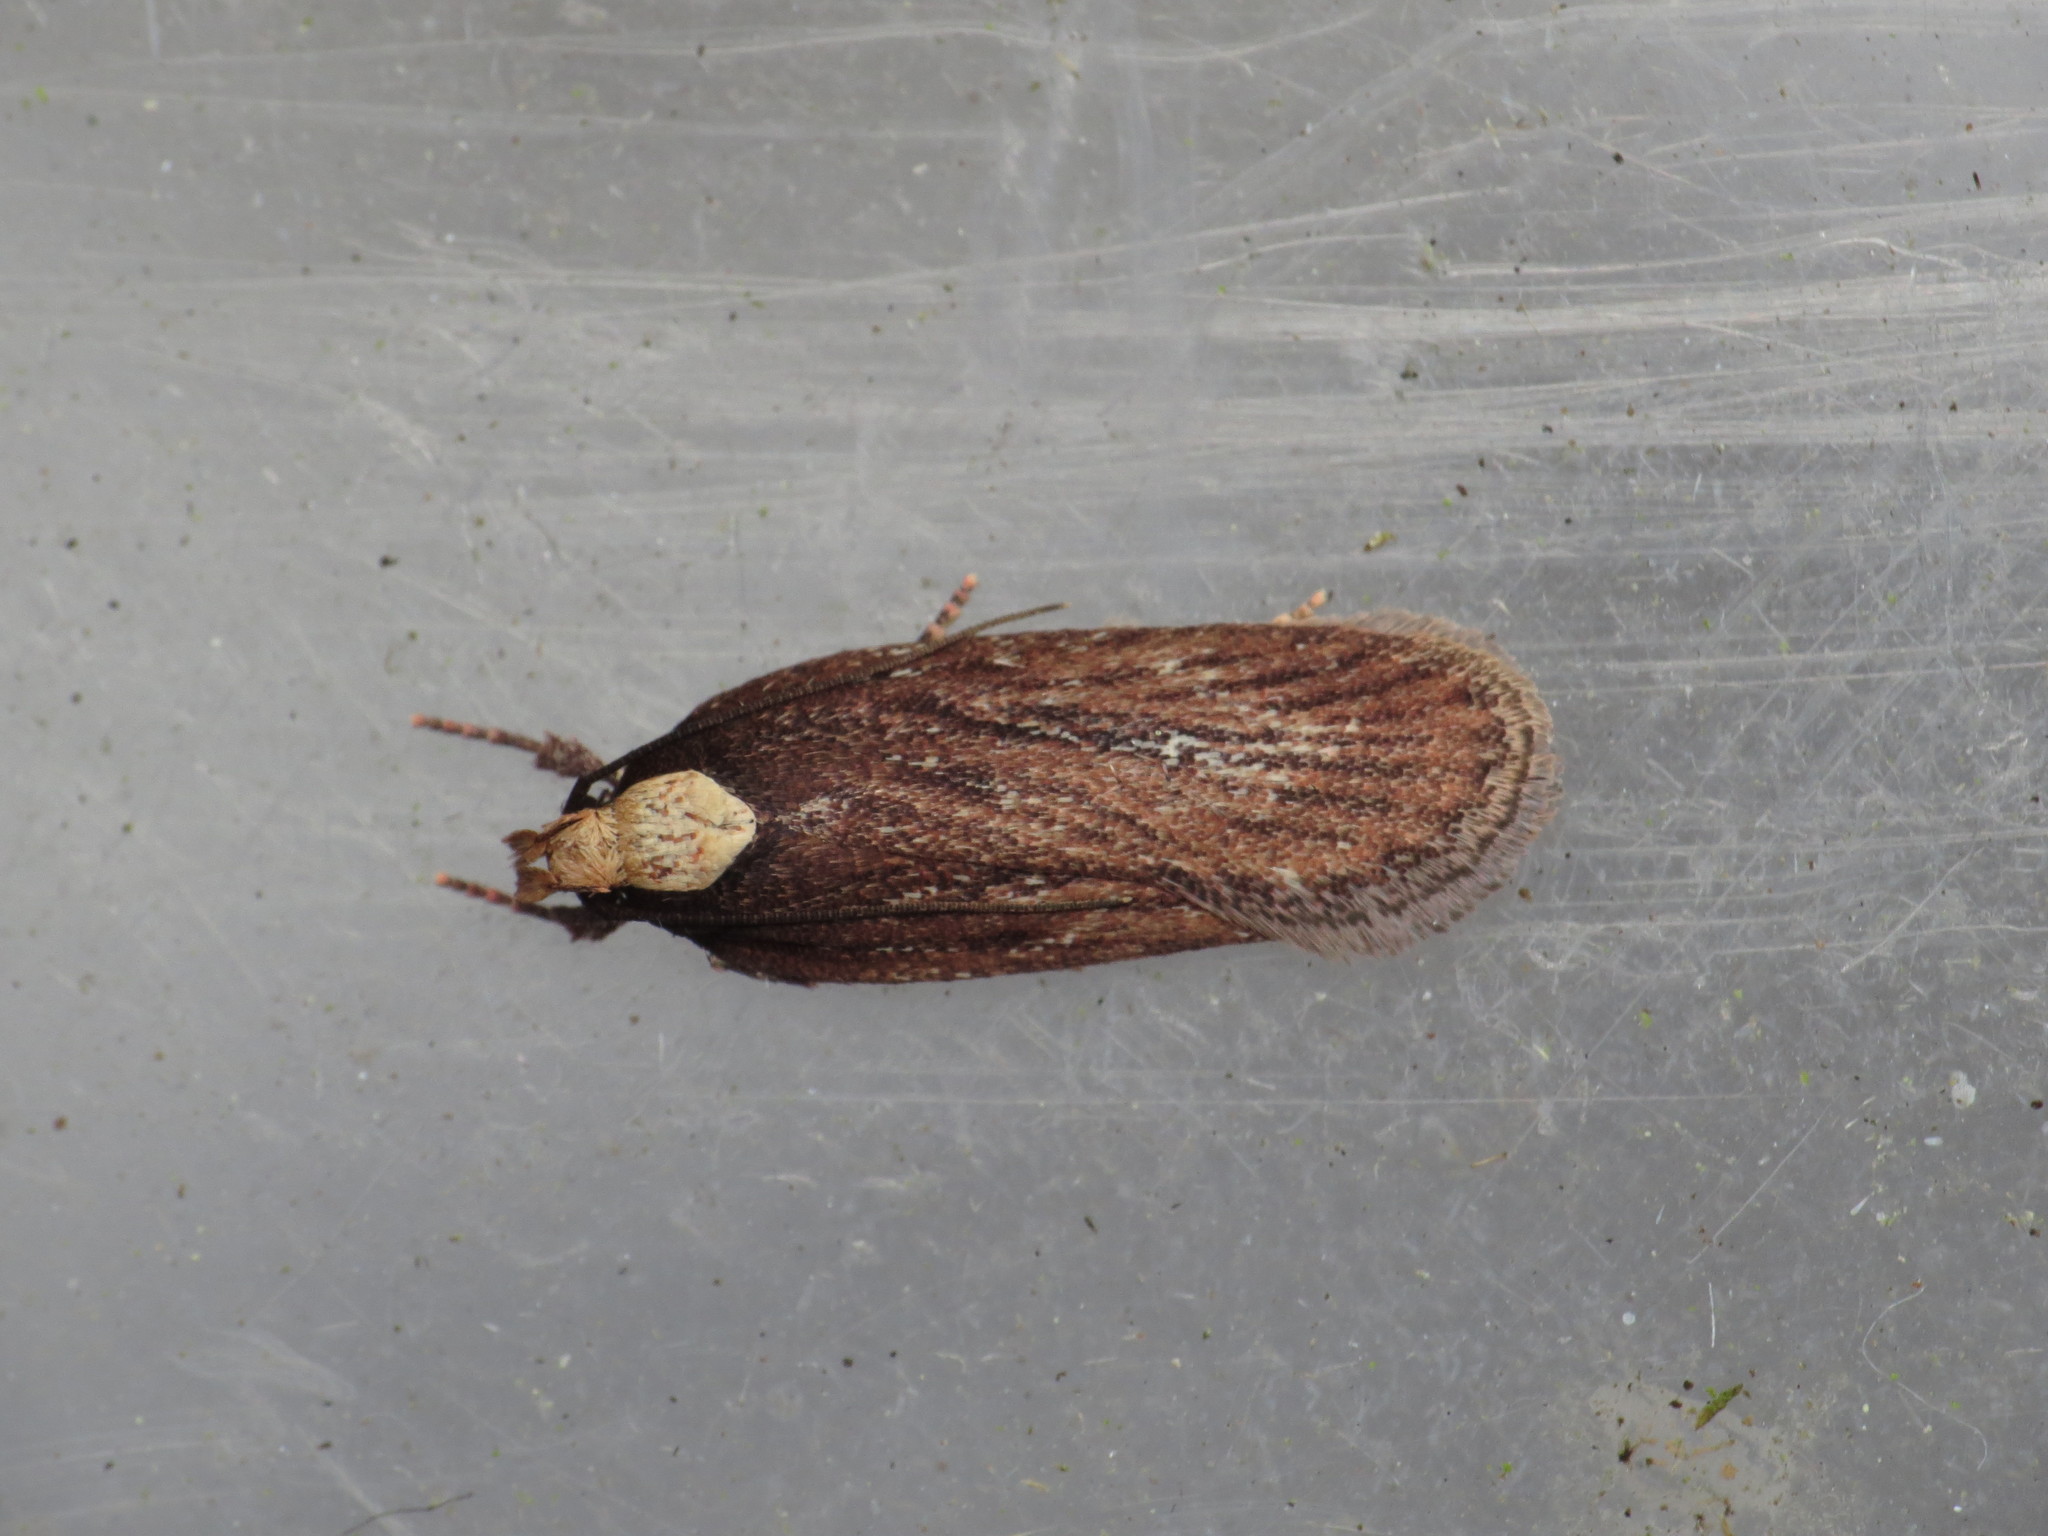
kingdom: Animalia
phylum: Arthropoda
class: Insecta
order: Lepidoptera
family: Depressariidae
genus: Depressaria
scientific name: Depressaria emeritella
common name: Tansy flat-body
